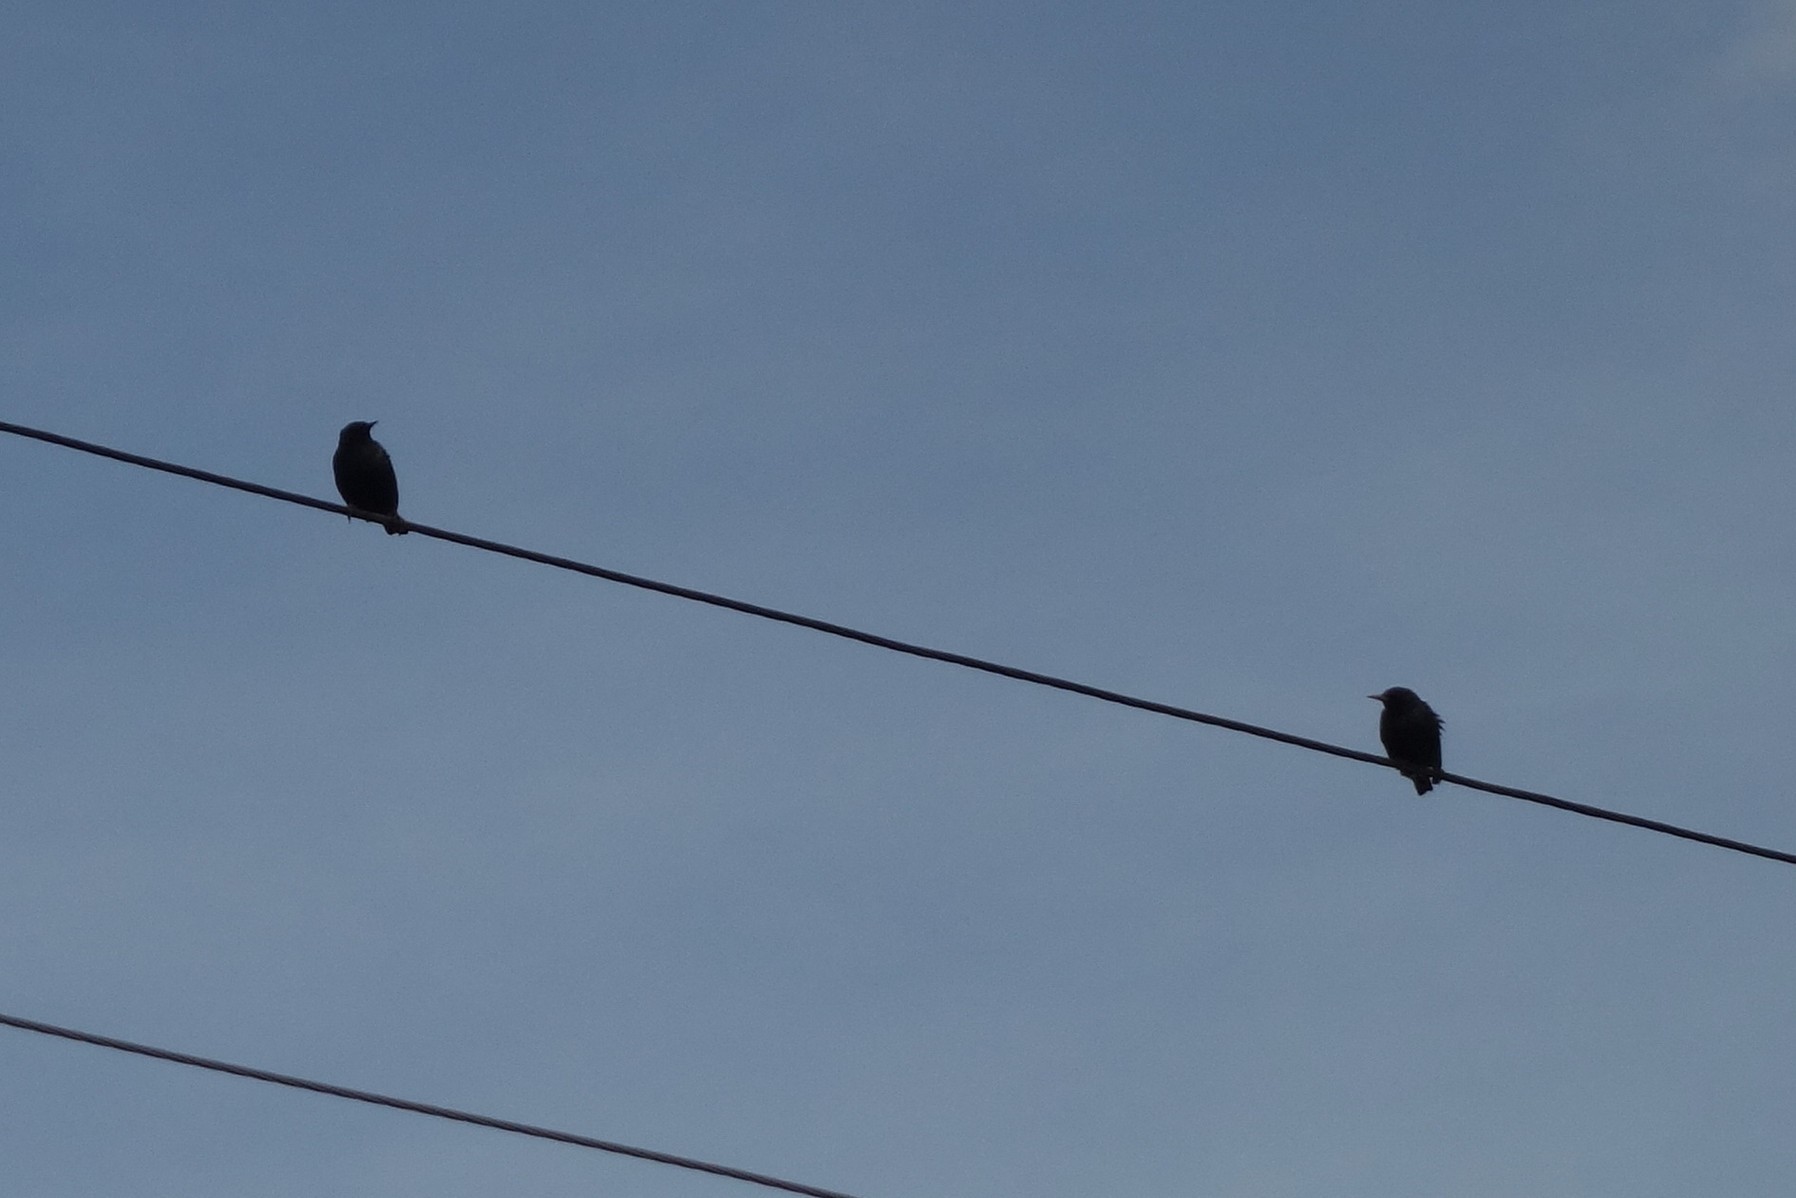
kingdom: Animalia
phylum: Chordata
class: Aves
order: Passeriformes
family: Sturnidae
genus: Sturnus
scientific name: Sturnus vulgaris
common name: Common starling
